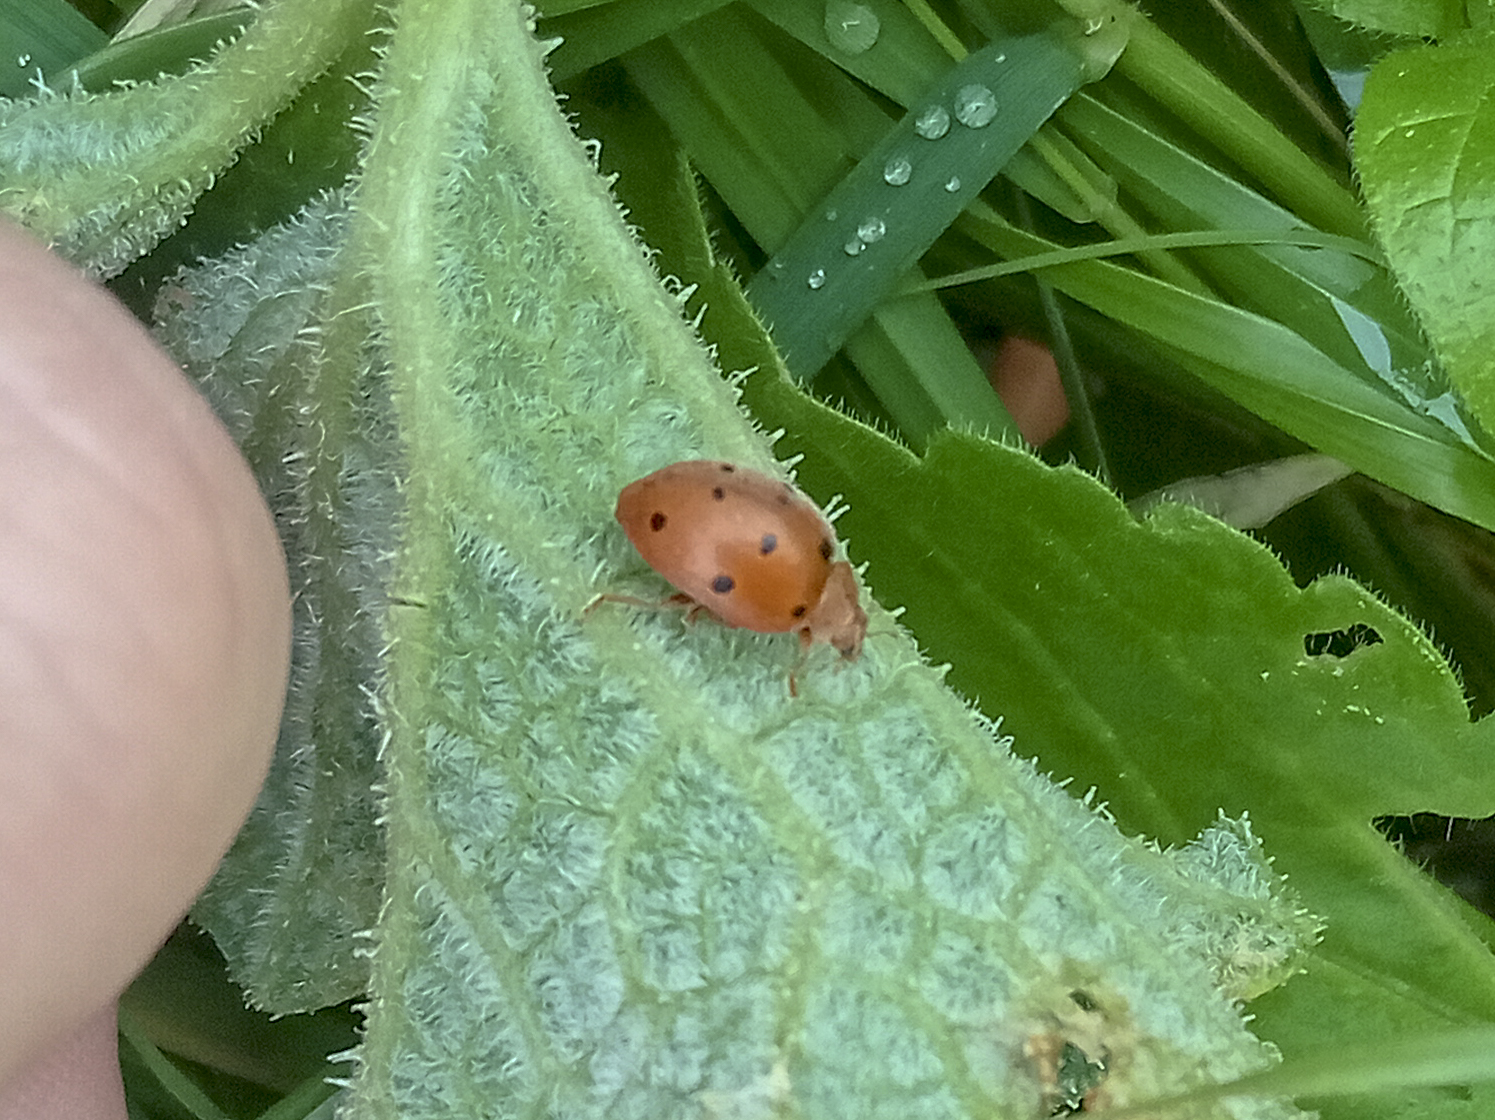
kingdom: Animalia
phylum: Arthropoda
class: Insecta
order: Coleoptera
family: Coccinellidae
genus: Henosepilachna
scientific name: Henosepilachna argus
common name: Bryony ladybird
